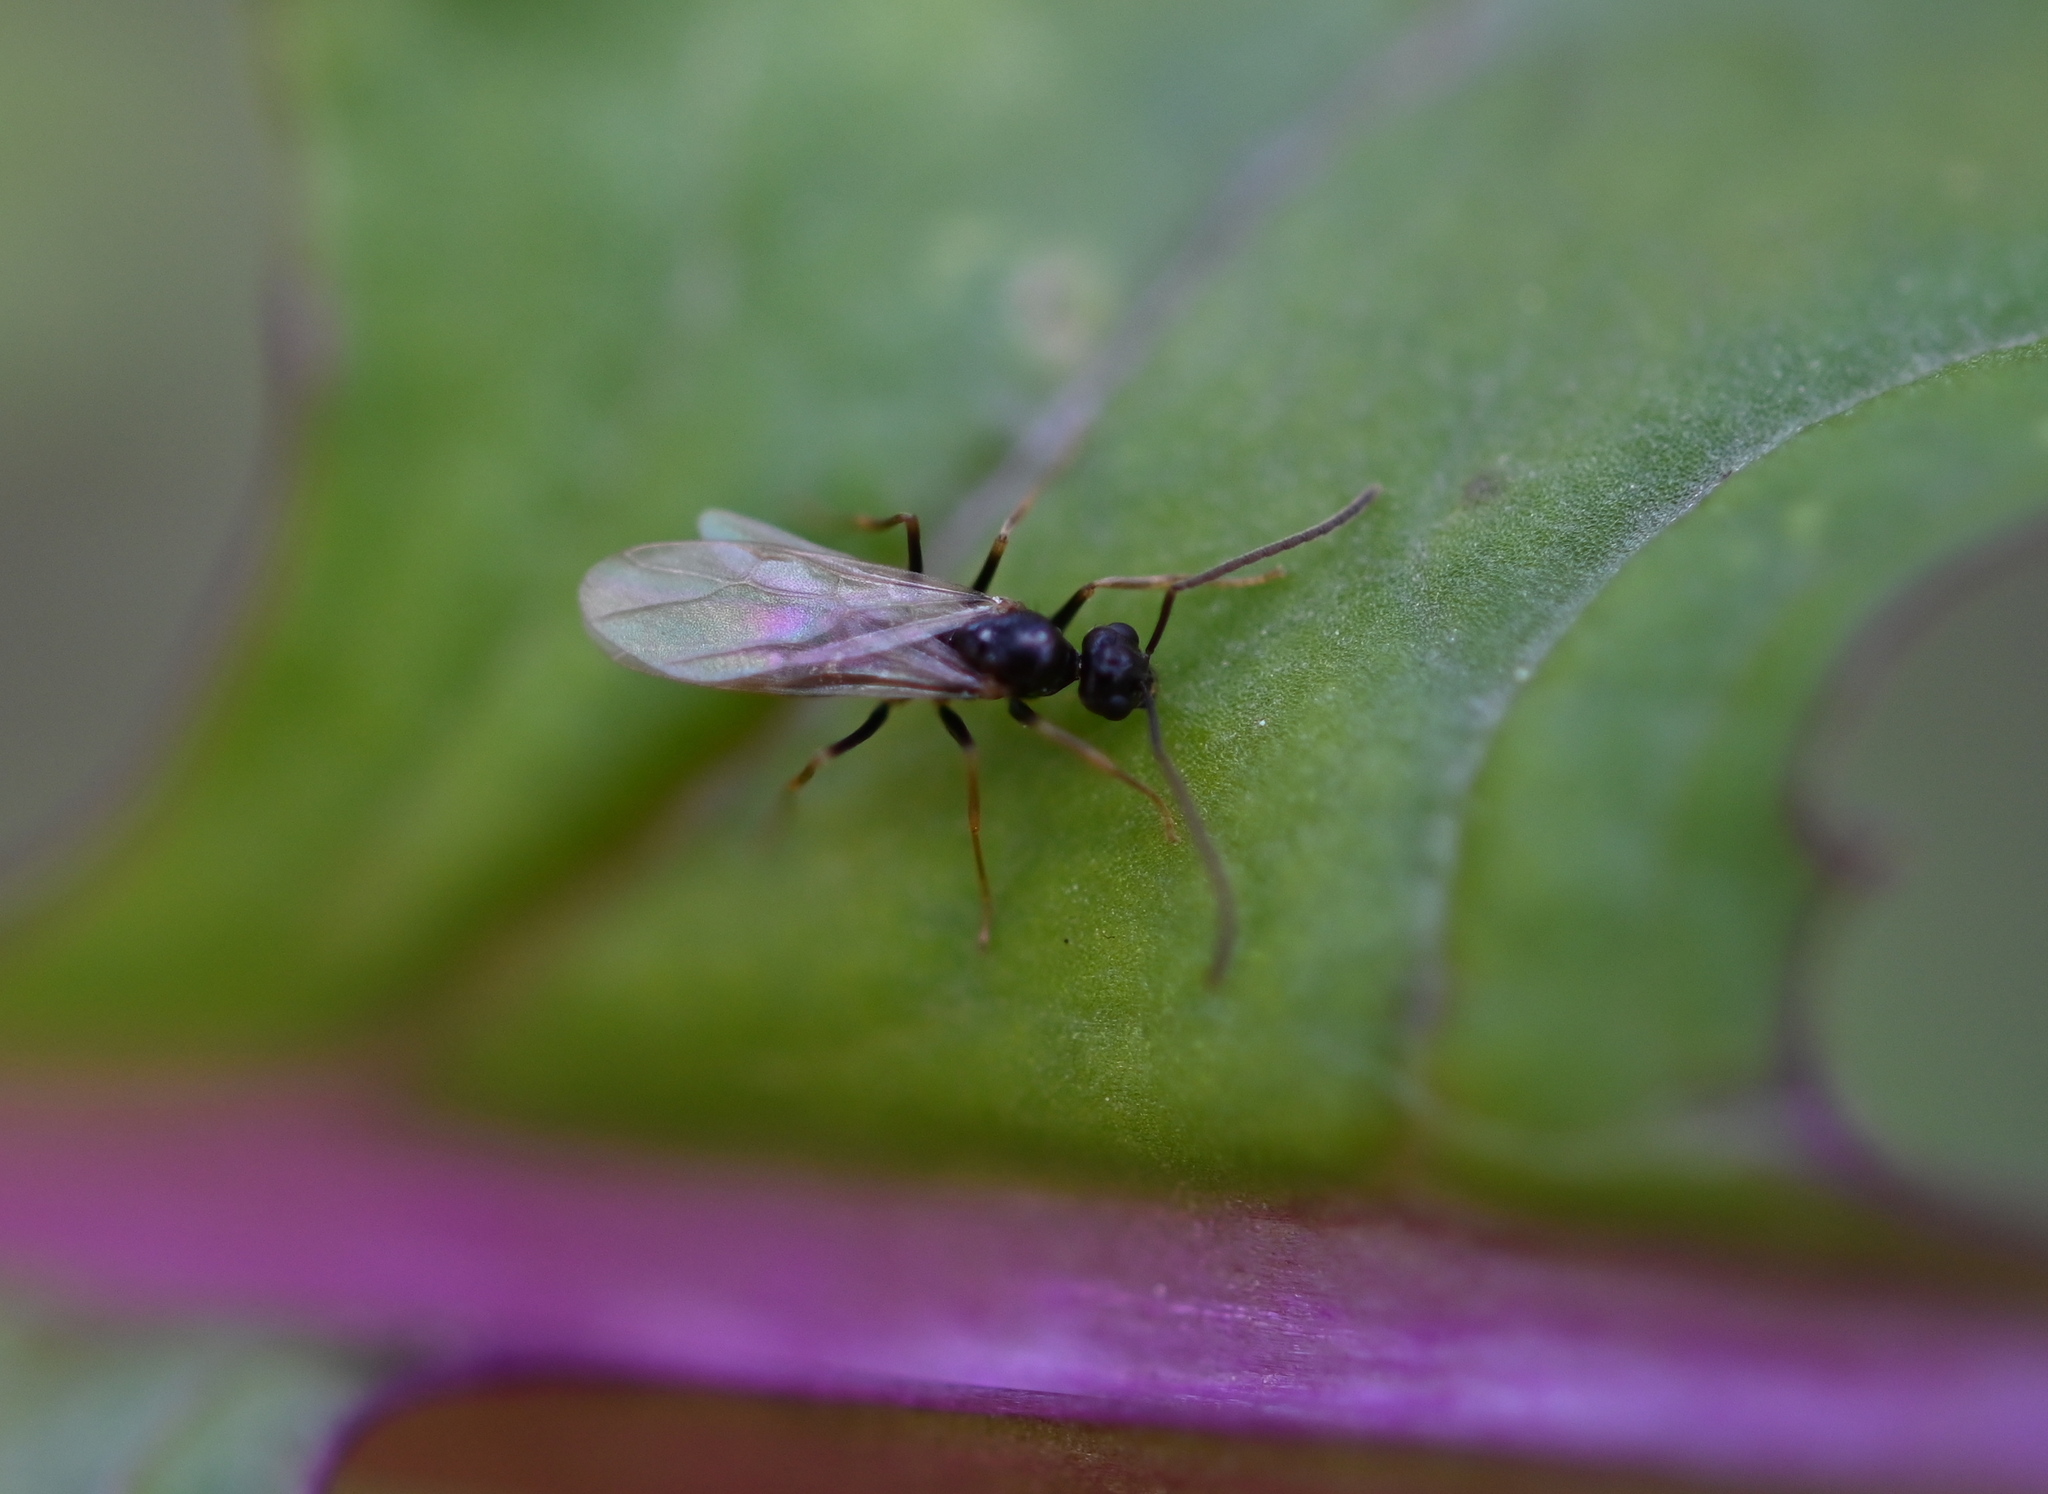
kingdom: Animalia
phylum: Arthropoda
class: Insecta
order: Hymenoptera
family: Formicidae
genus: Prenolepis
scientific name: Prenolepis imparis
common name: Small honey ant
